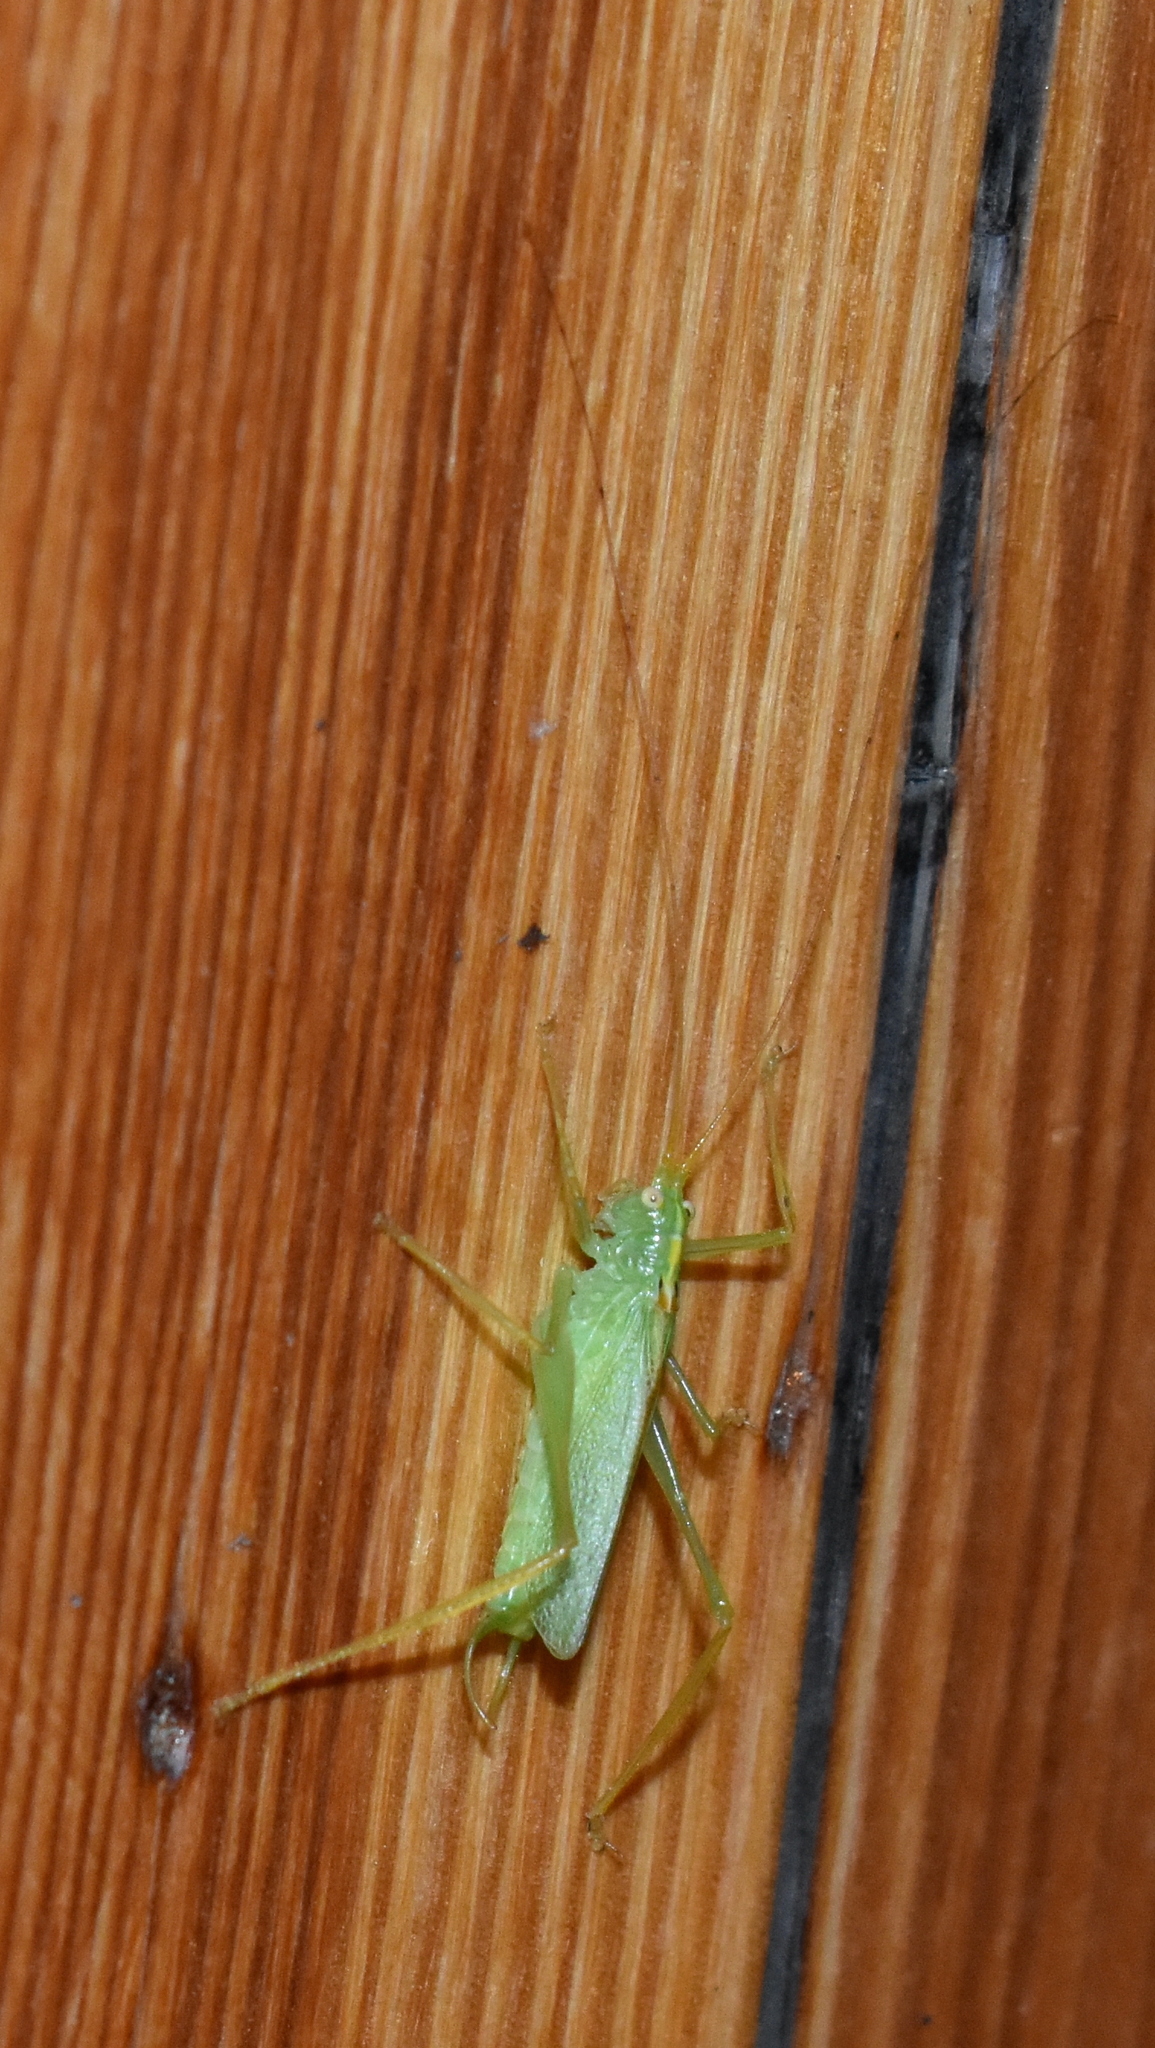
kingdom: Animalia
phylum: Arthropoda
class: Insecta
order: Orthoptera
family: Tettigoniidae
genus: Meconema
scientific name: Meconema thalassinum
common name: Oak bush-cricket
